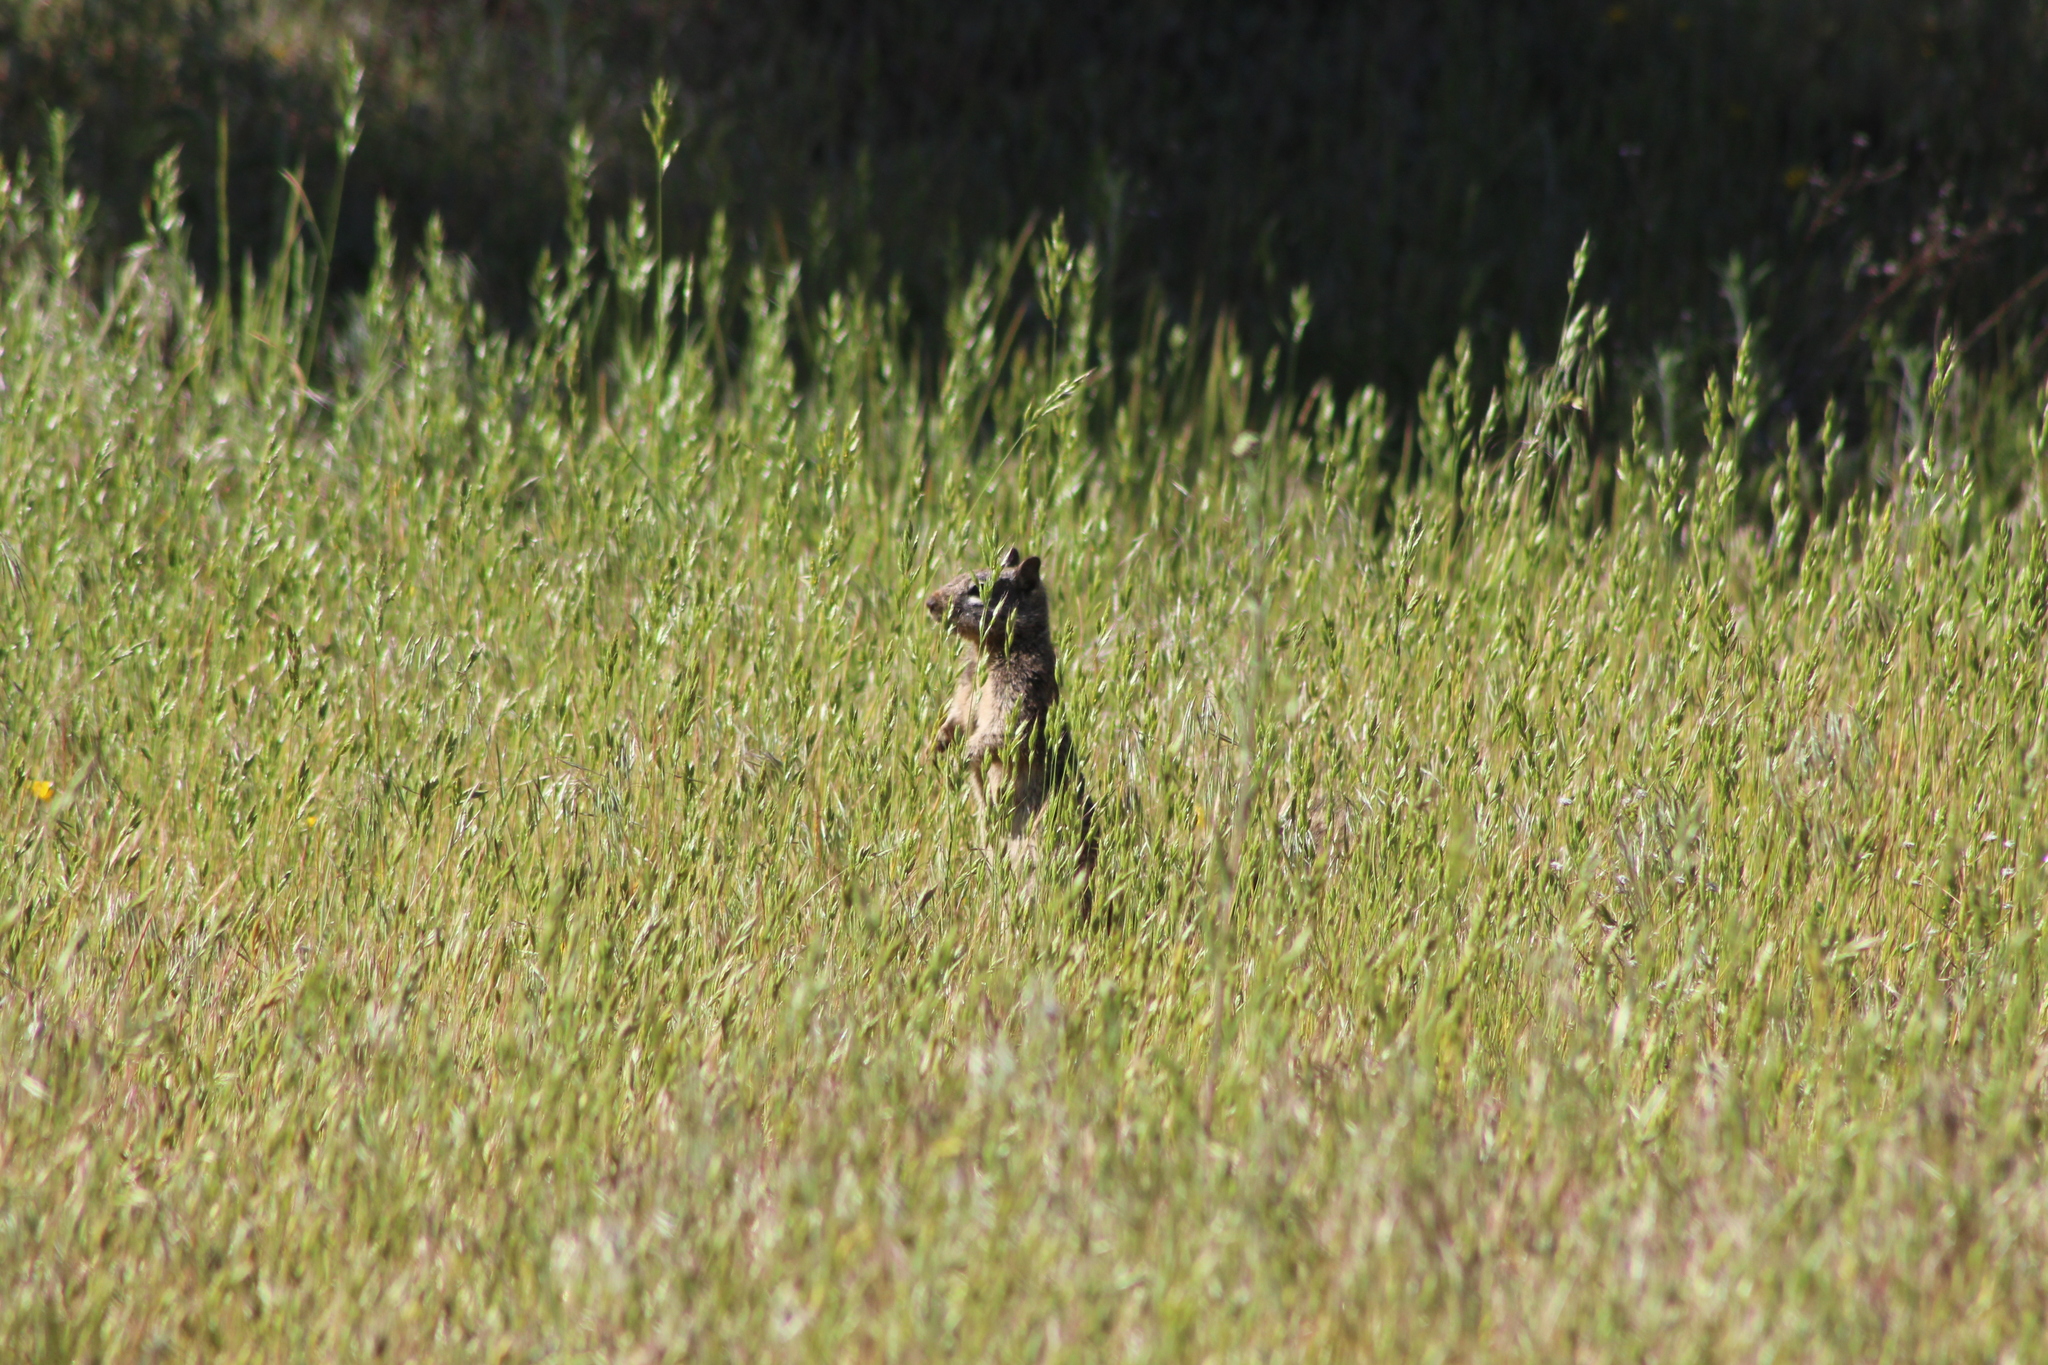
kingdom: Animalia
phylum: Chordata
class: Mammalia
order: Rodentia
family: Sciuridae
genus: Otospermophilus
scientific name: Otospermophilus beecheyi
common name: California ground squirrel
